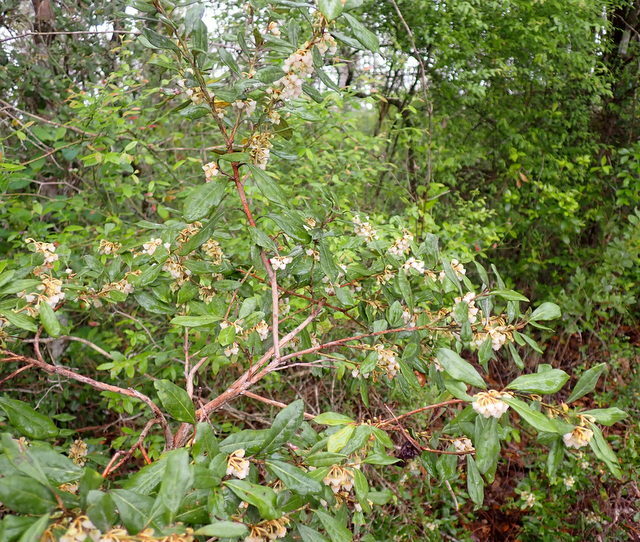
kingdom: Plantae
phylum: Tracheophyta
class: Magnoliopsida
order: Ericales
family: Ericaceae
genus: Lyonia
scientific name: Lyonia ferruginea
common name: Rusty lyonia
